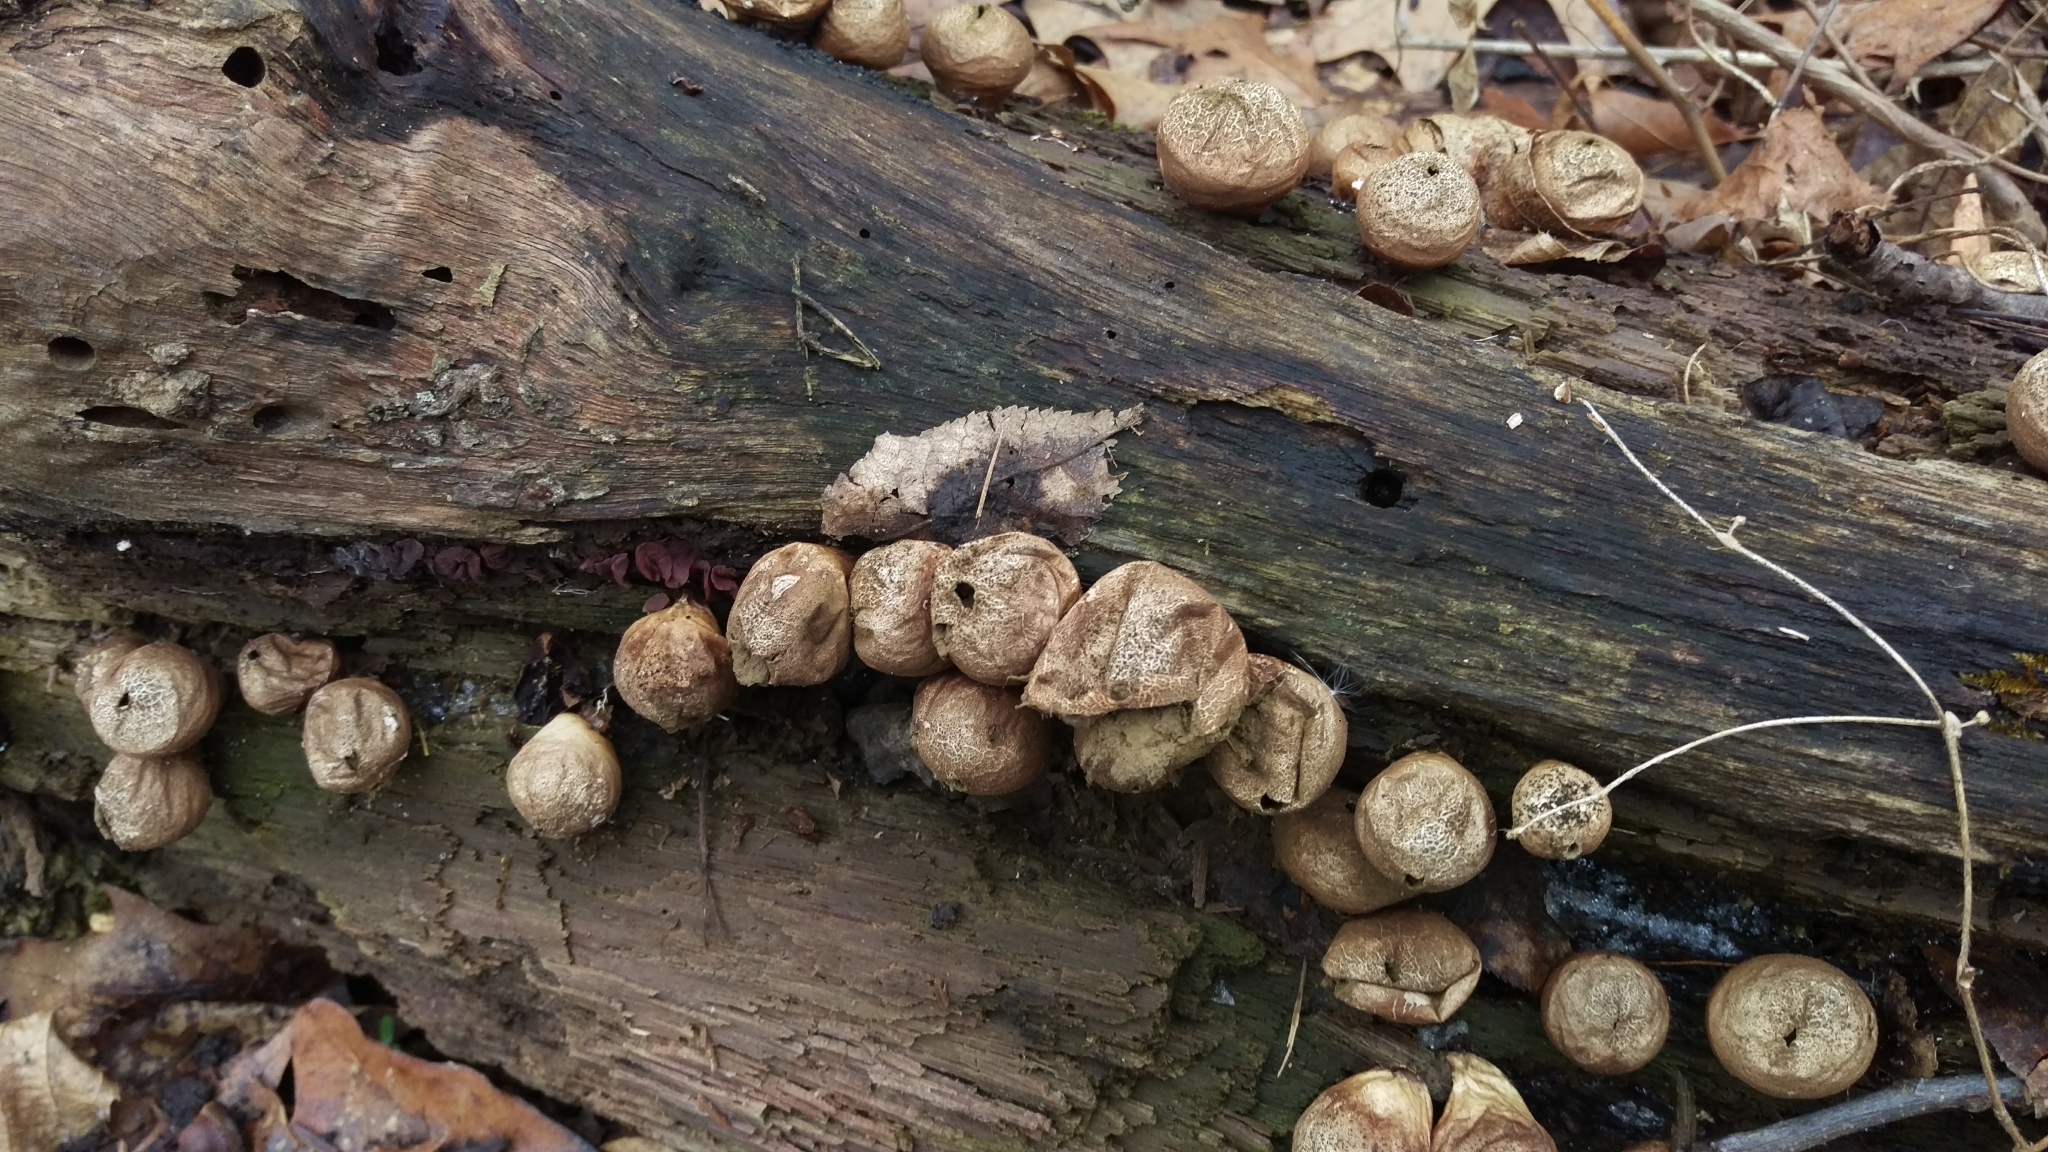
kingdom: Fungi
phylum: Basidiomycota
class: Agaricomycetes
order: Agaricales
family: Lycoperdaceae
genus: Apioperdon
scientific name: Apioperdon pyriforme
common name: Pear-shaped puffball
